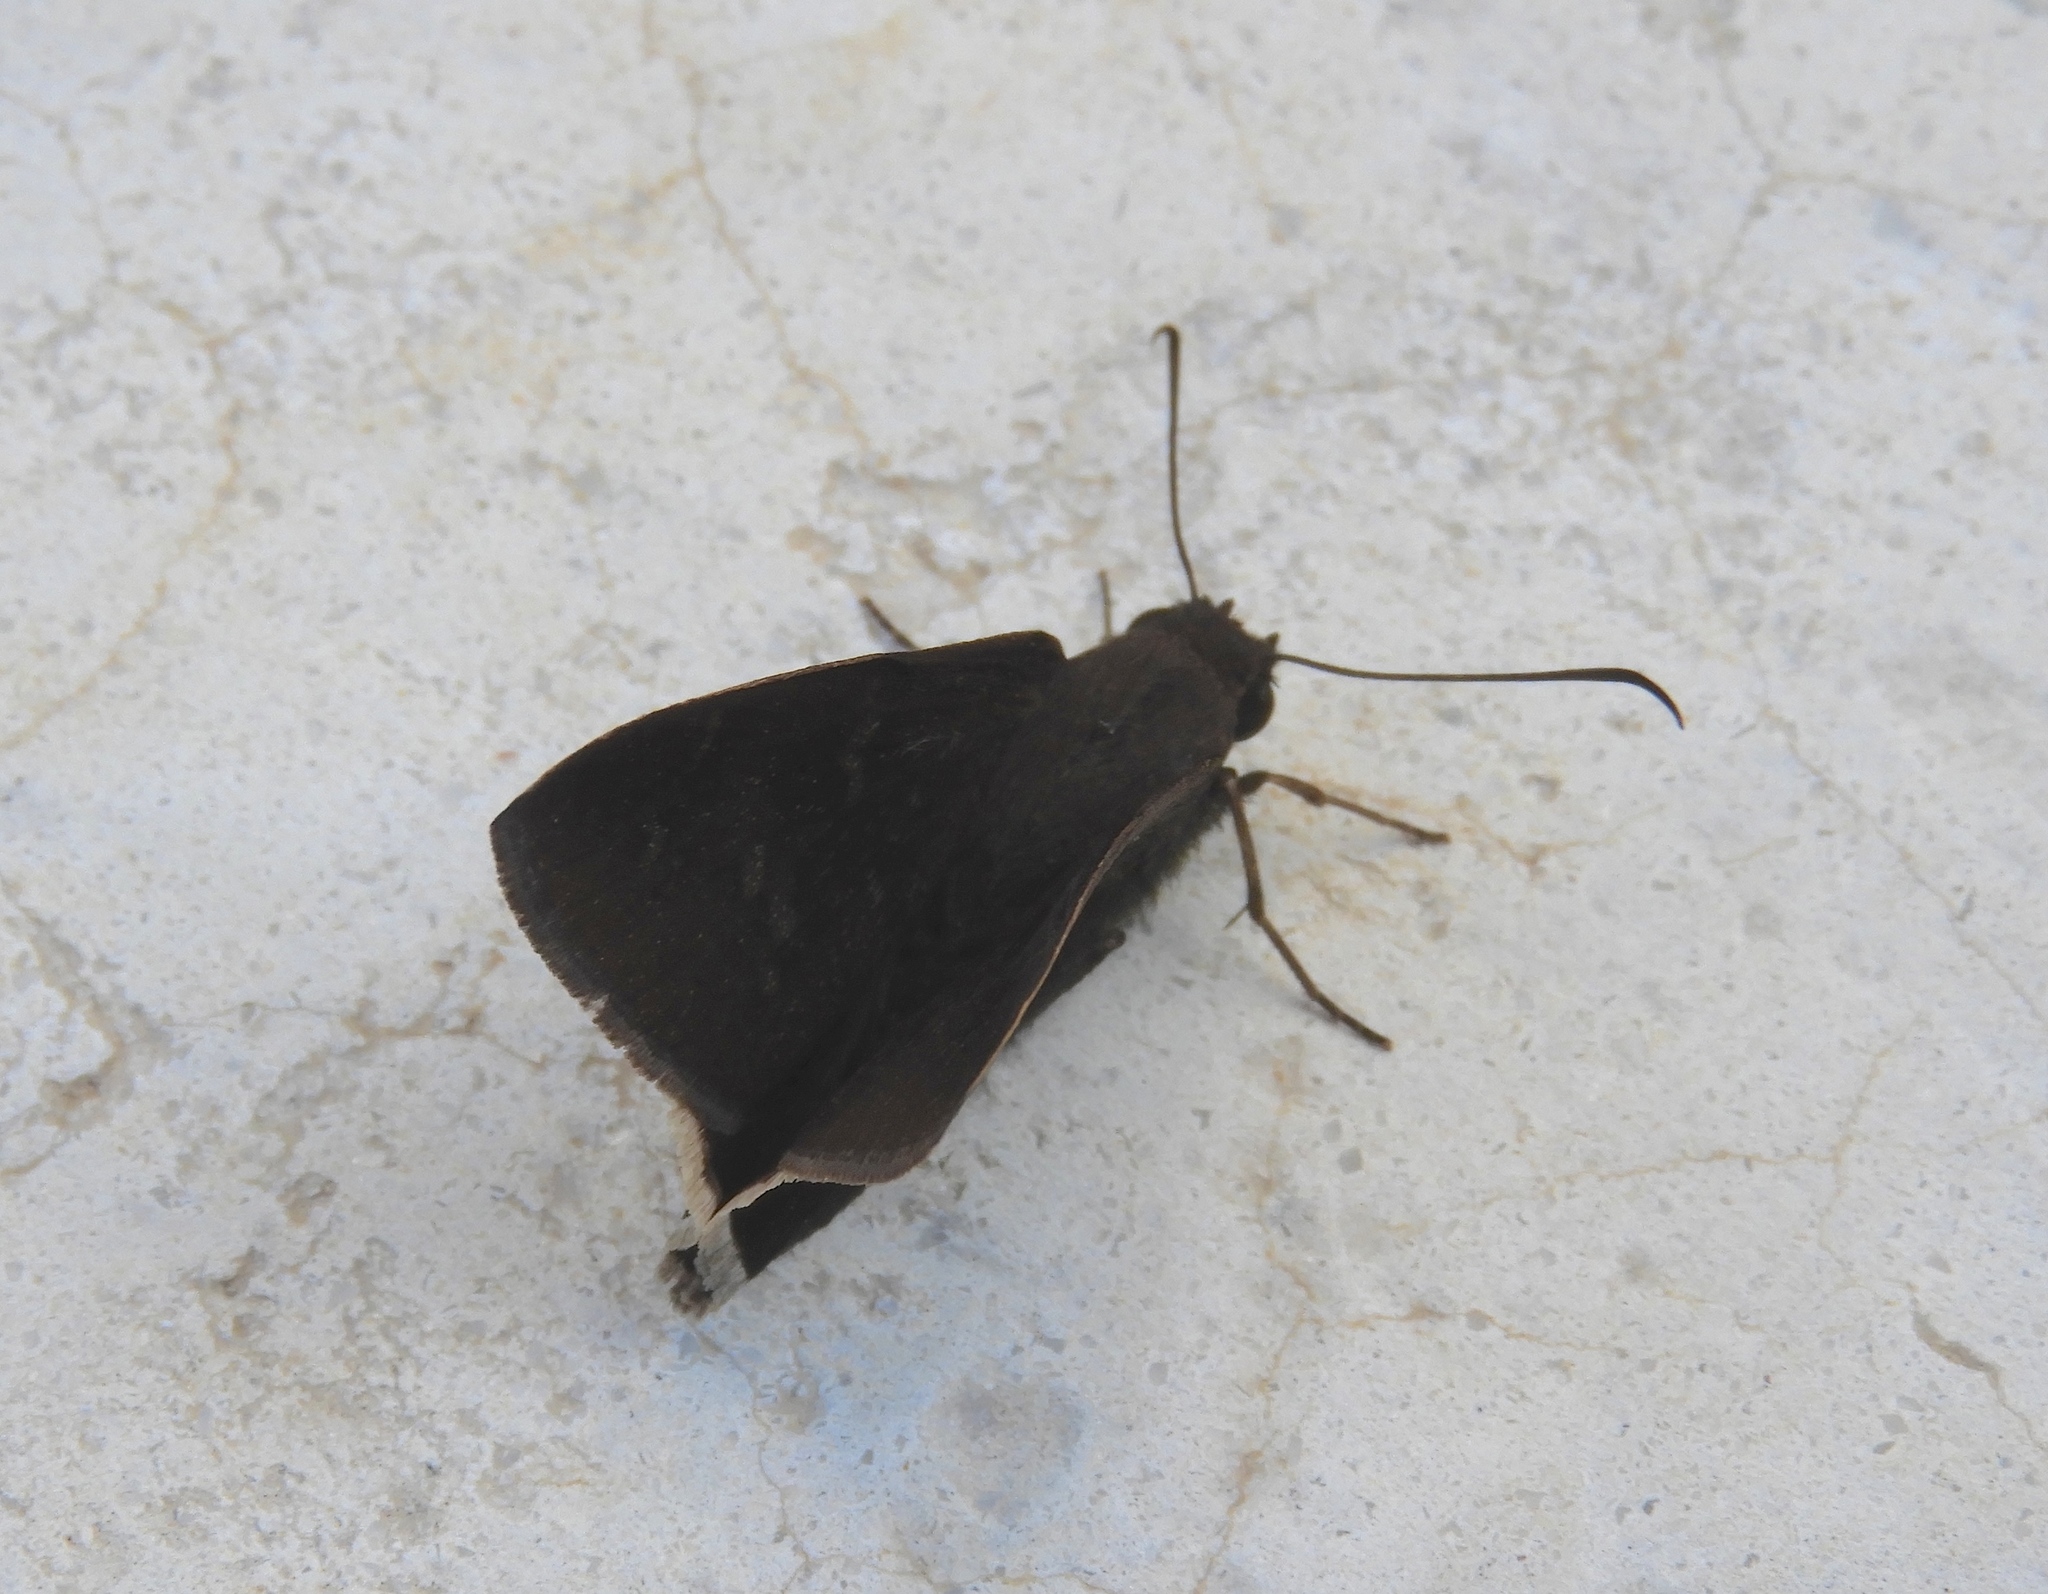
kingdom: Animalia
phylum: Arthropoda
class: Insecta
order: Lepidoptera
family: Hesperiidae
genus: Achalarus
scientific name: Achalarus Murgaria albociliatus
